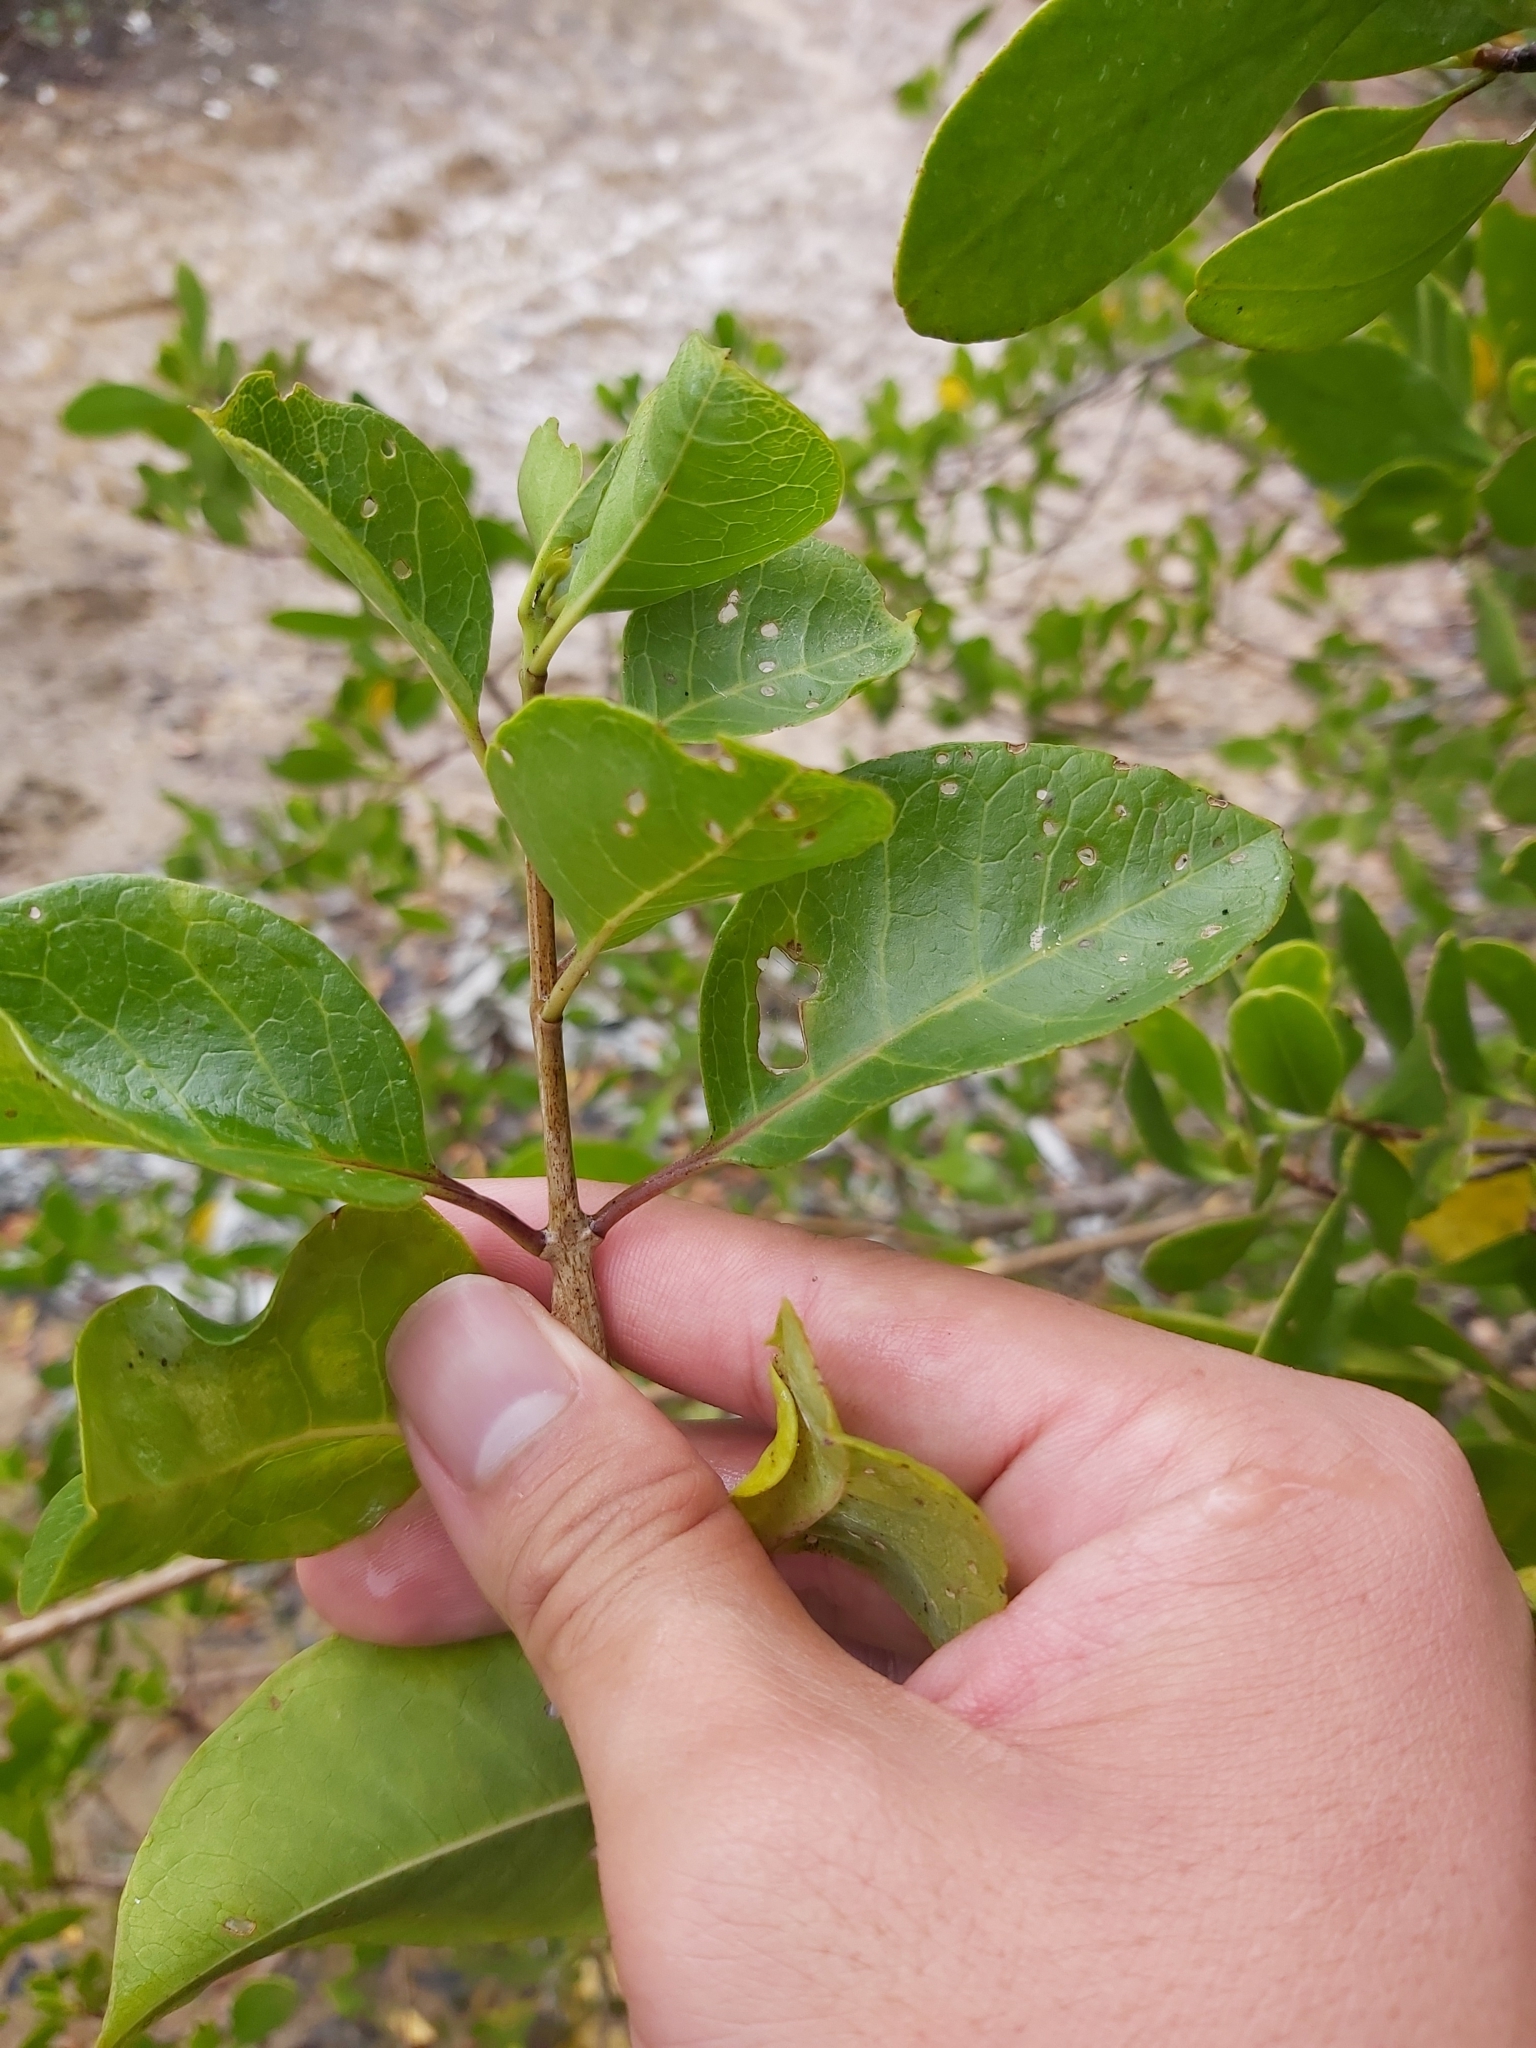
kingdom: Plantae
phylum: Tracheophyta
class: Magnoliopsida
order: Lamiales
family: Lamiaceae
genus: Volkameria
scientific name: Volkameria inermis
